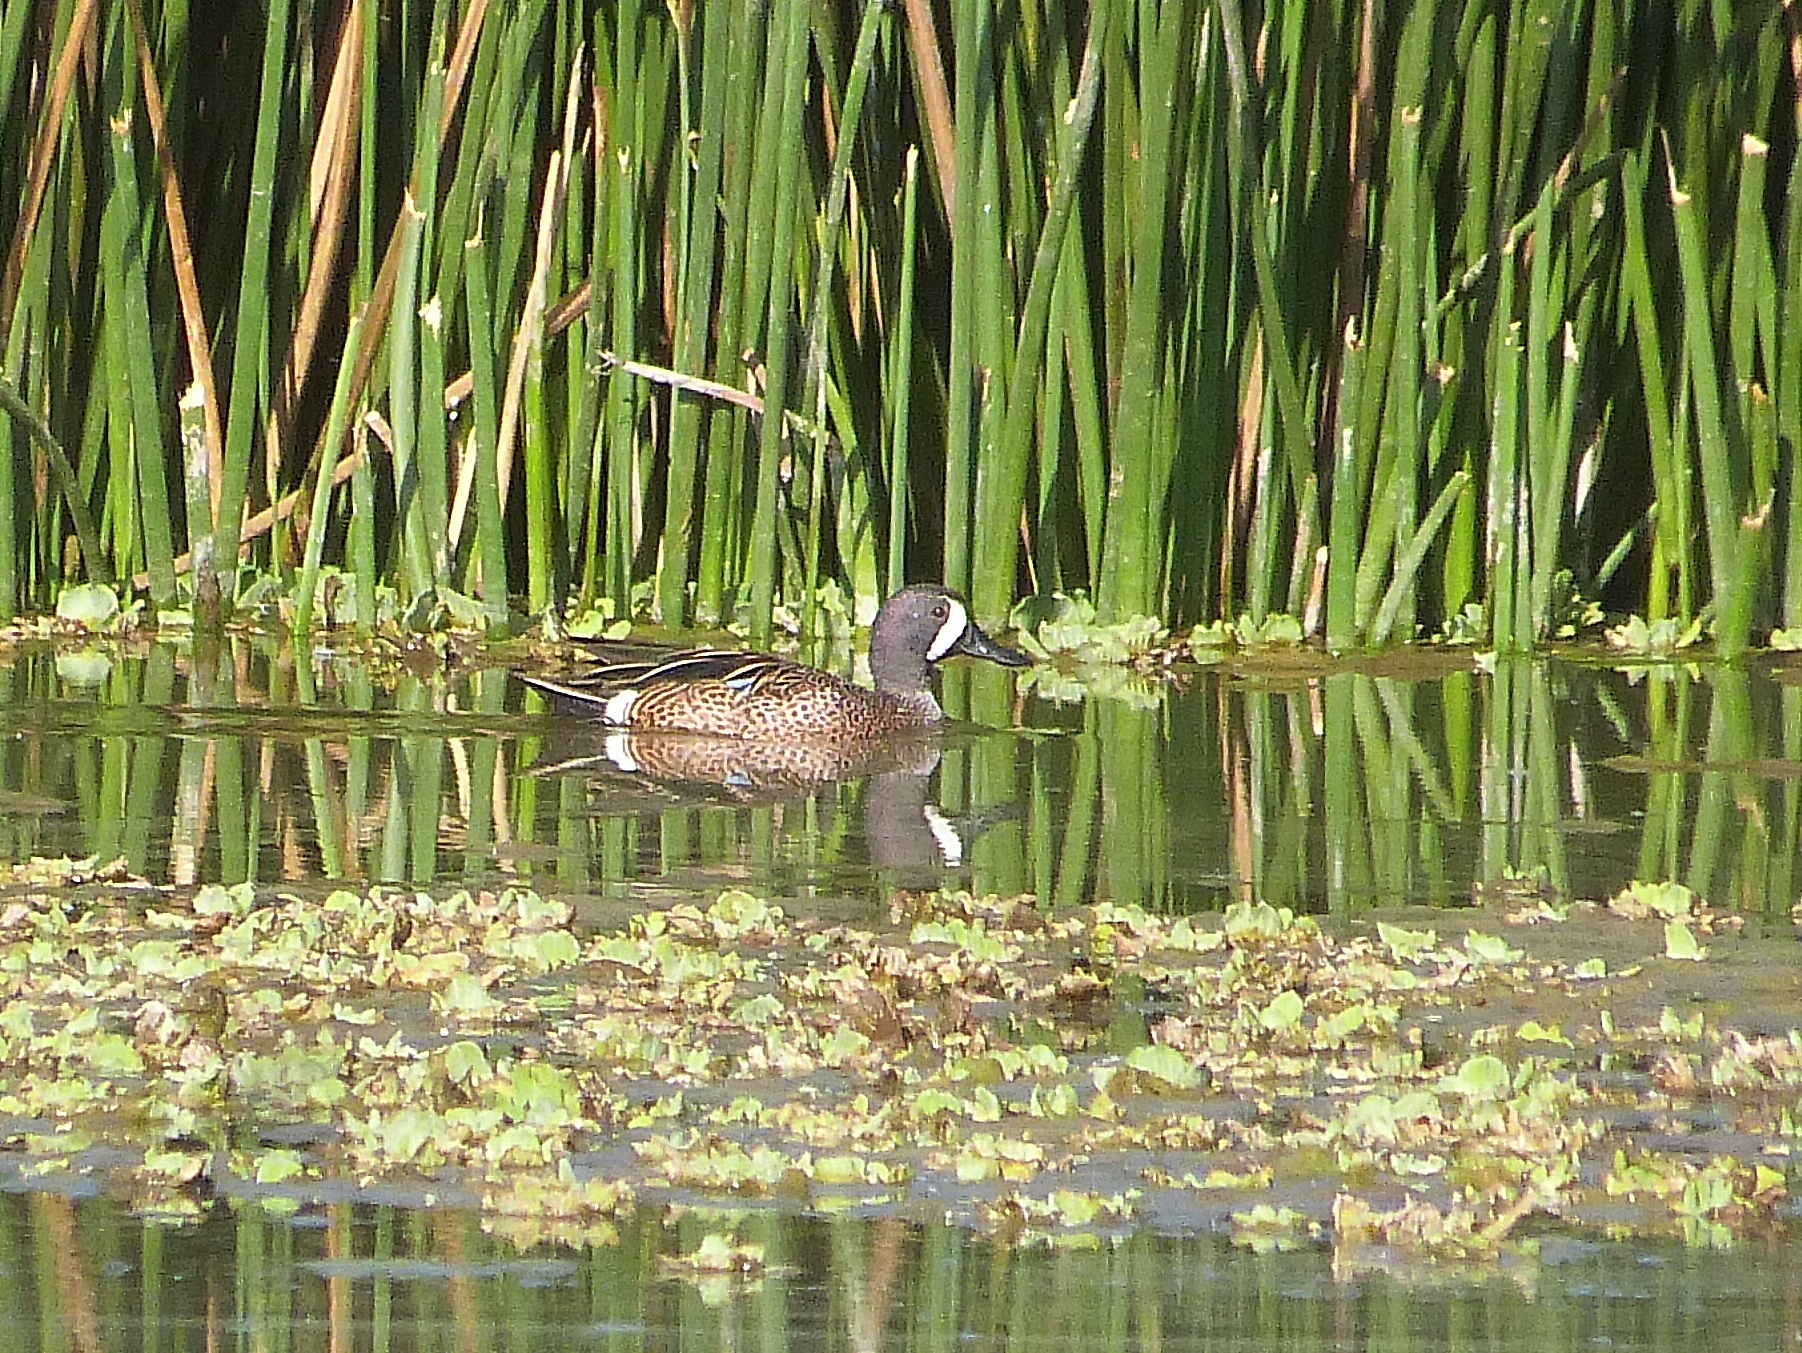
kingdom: Animalia
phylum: Chordata
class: Aves
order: Anseriformes
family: Anatidae
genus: Spatula
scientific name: Spatula discors
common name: Blue-winged teal
